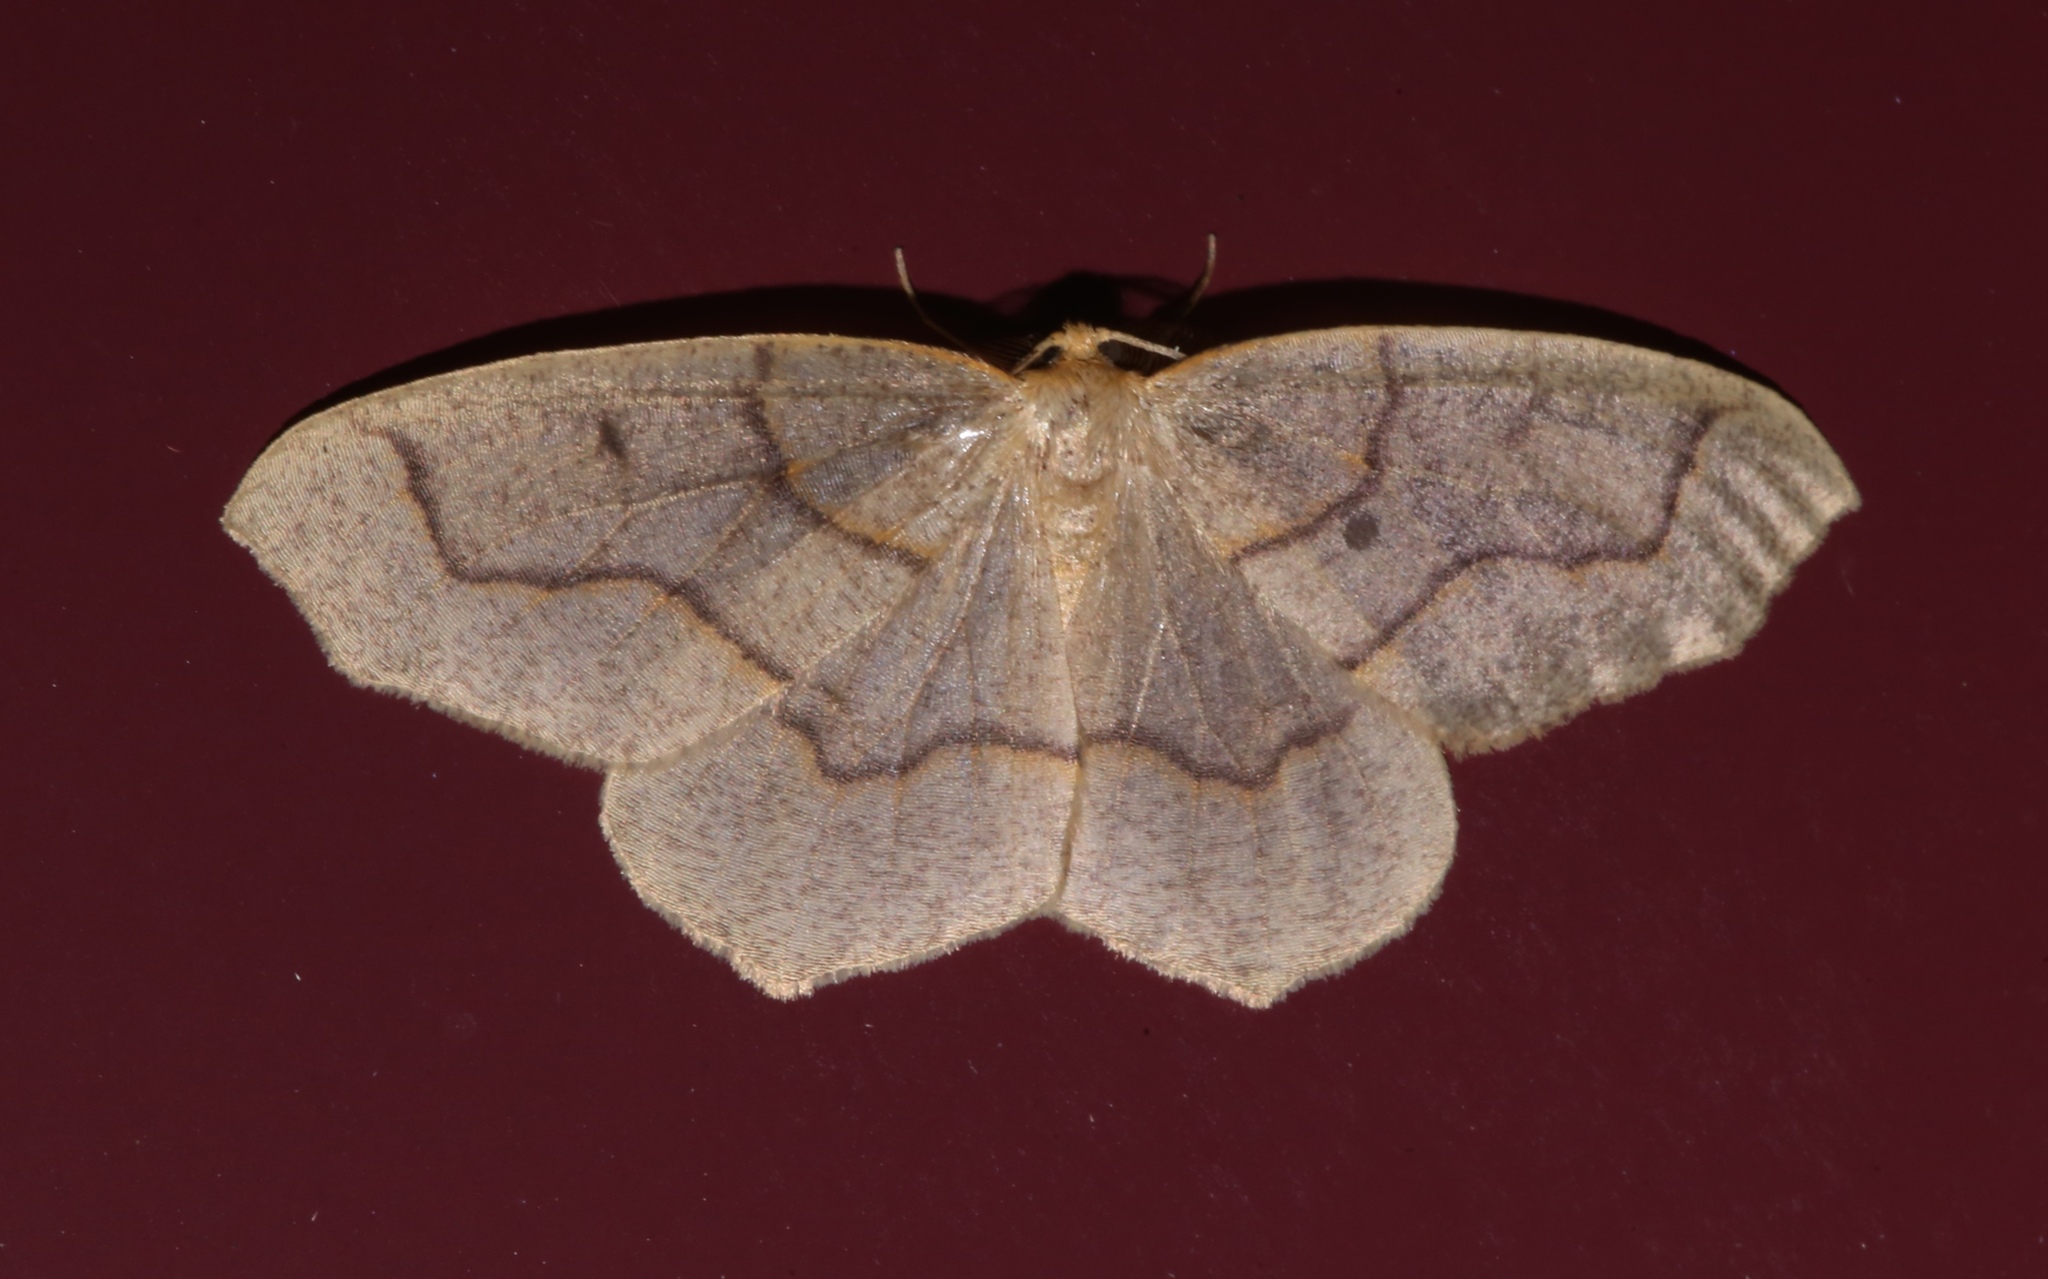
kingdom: Animalia
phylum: Arthropoda
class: Insecta
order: Lepidoptera
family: Geometridae
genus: Lambdina
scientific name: Lambdina fiscellaria
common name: Hemlock looper
